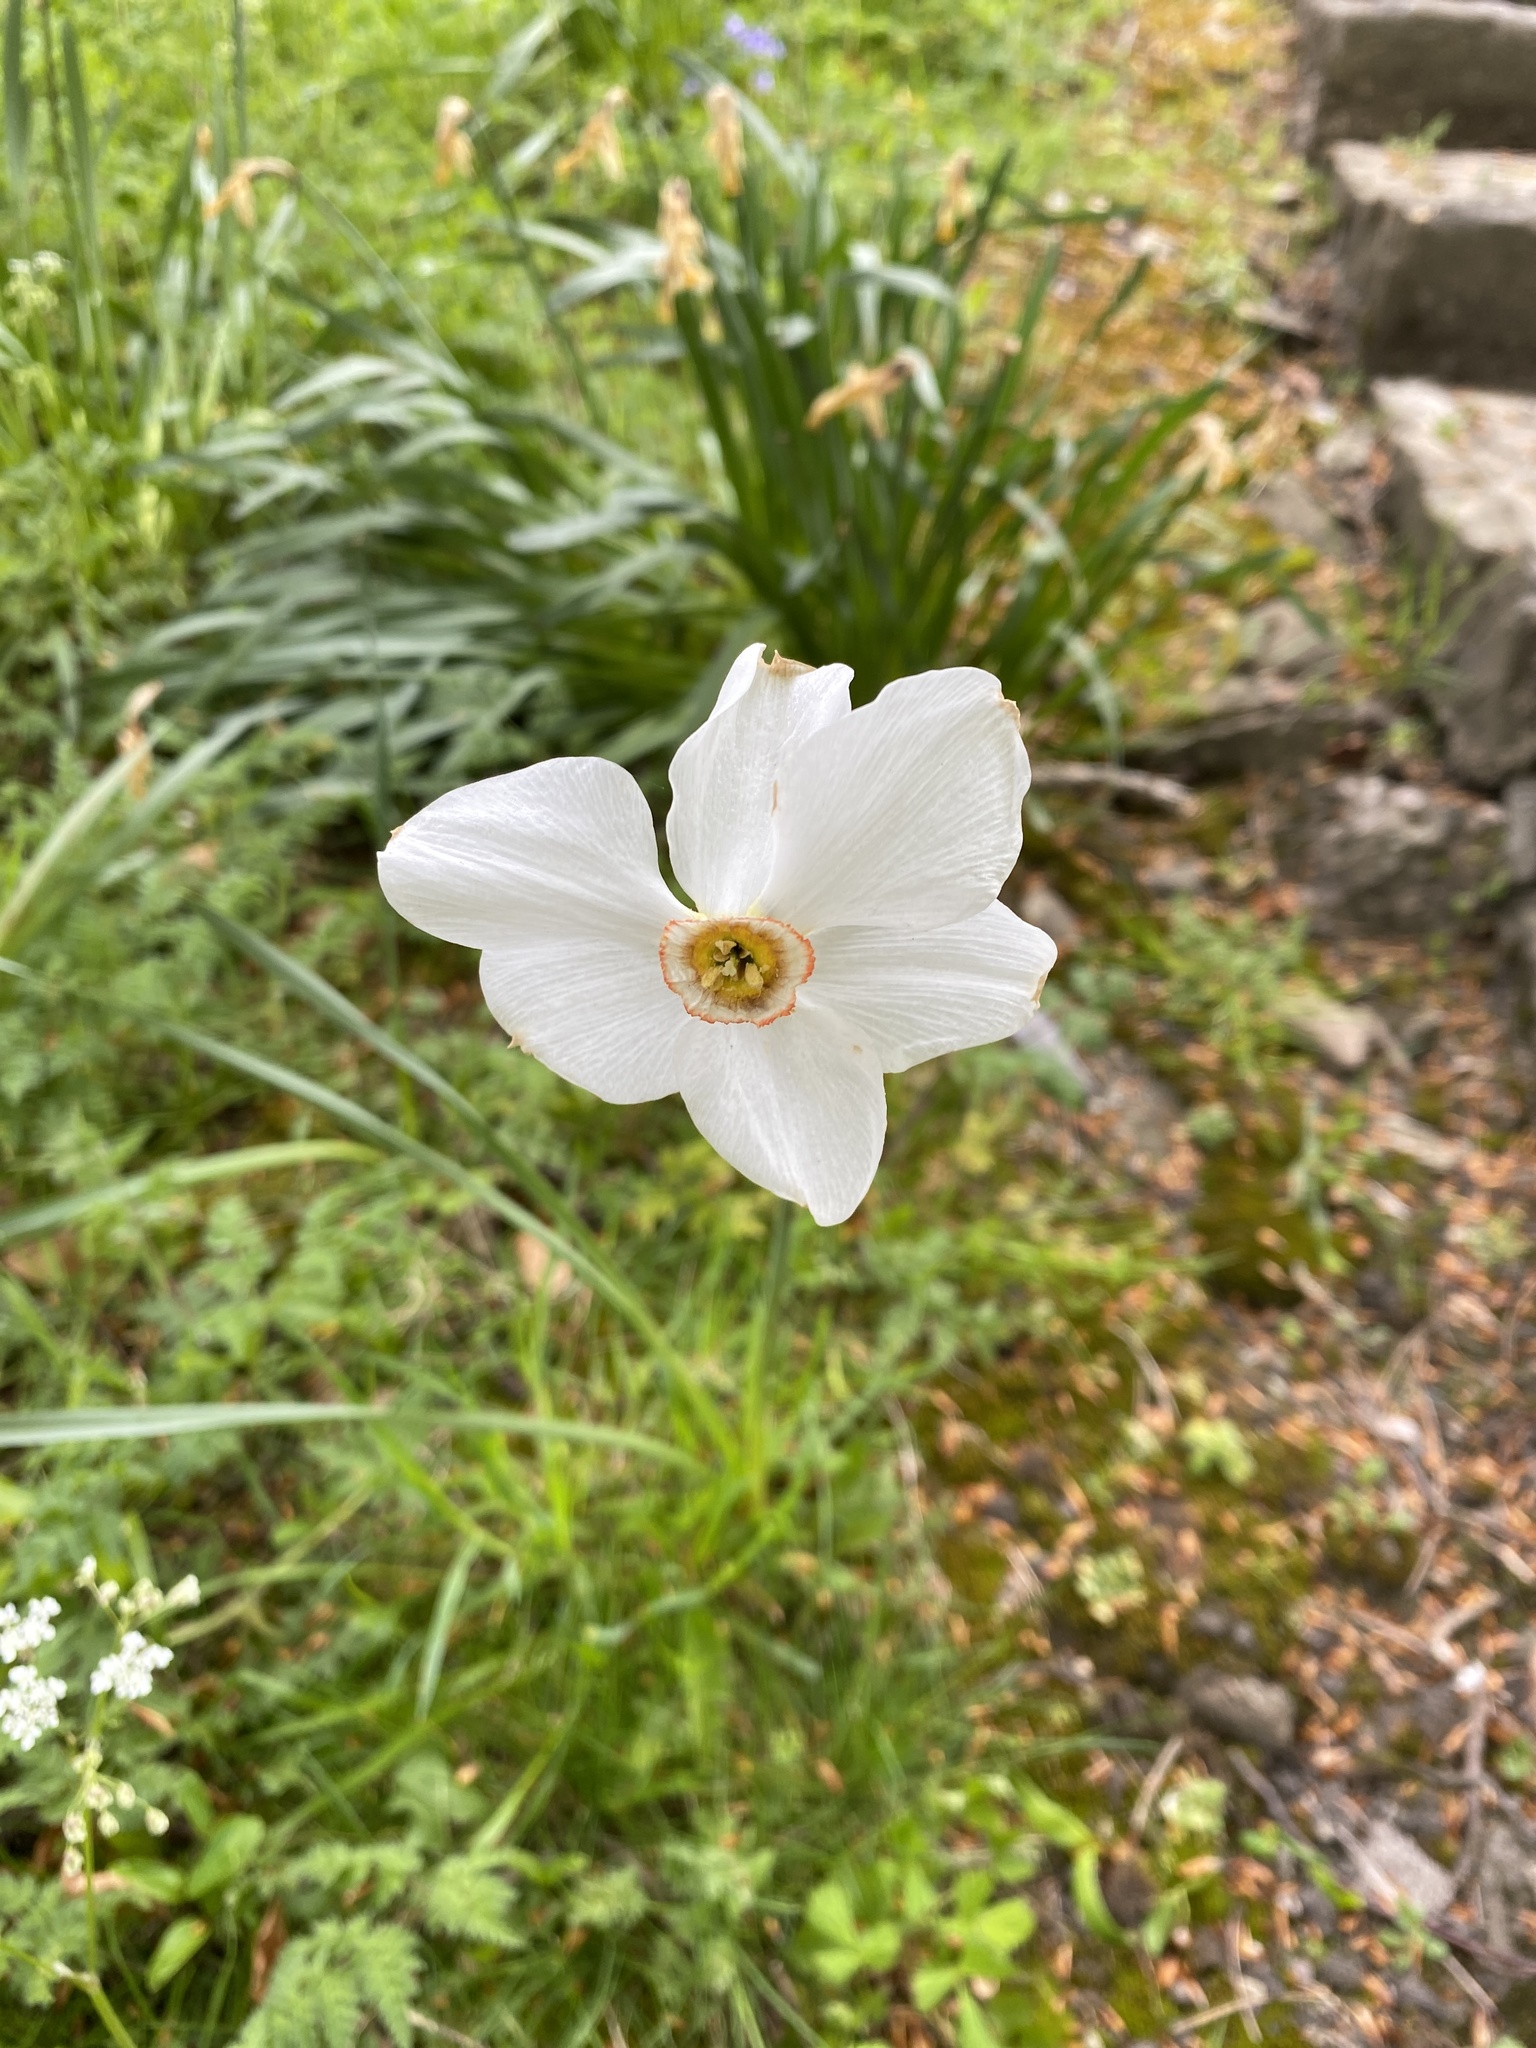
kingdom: Plantae
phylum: Tracheophyta
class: Liliopsida
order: Asparagales
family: Amaryllidaceae
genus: Narcissus
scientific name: Narcissus poeticus
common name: Pheasant's-eye daffodil
